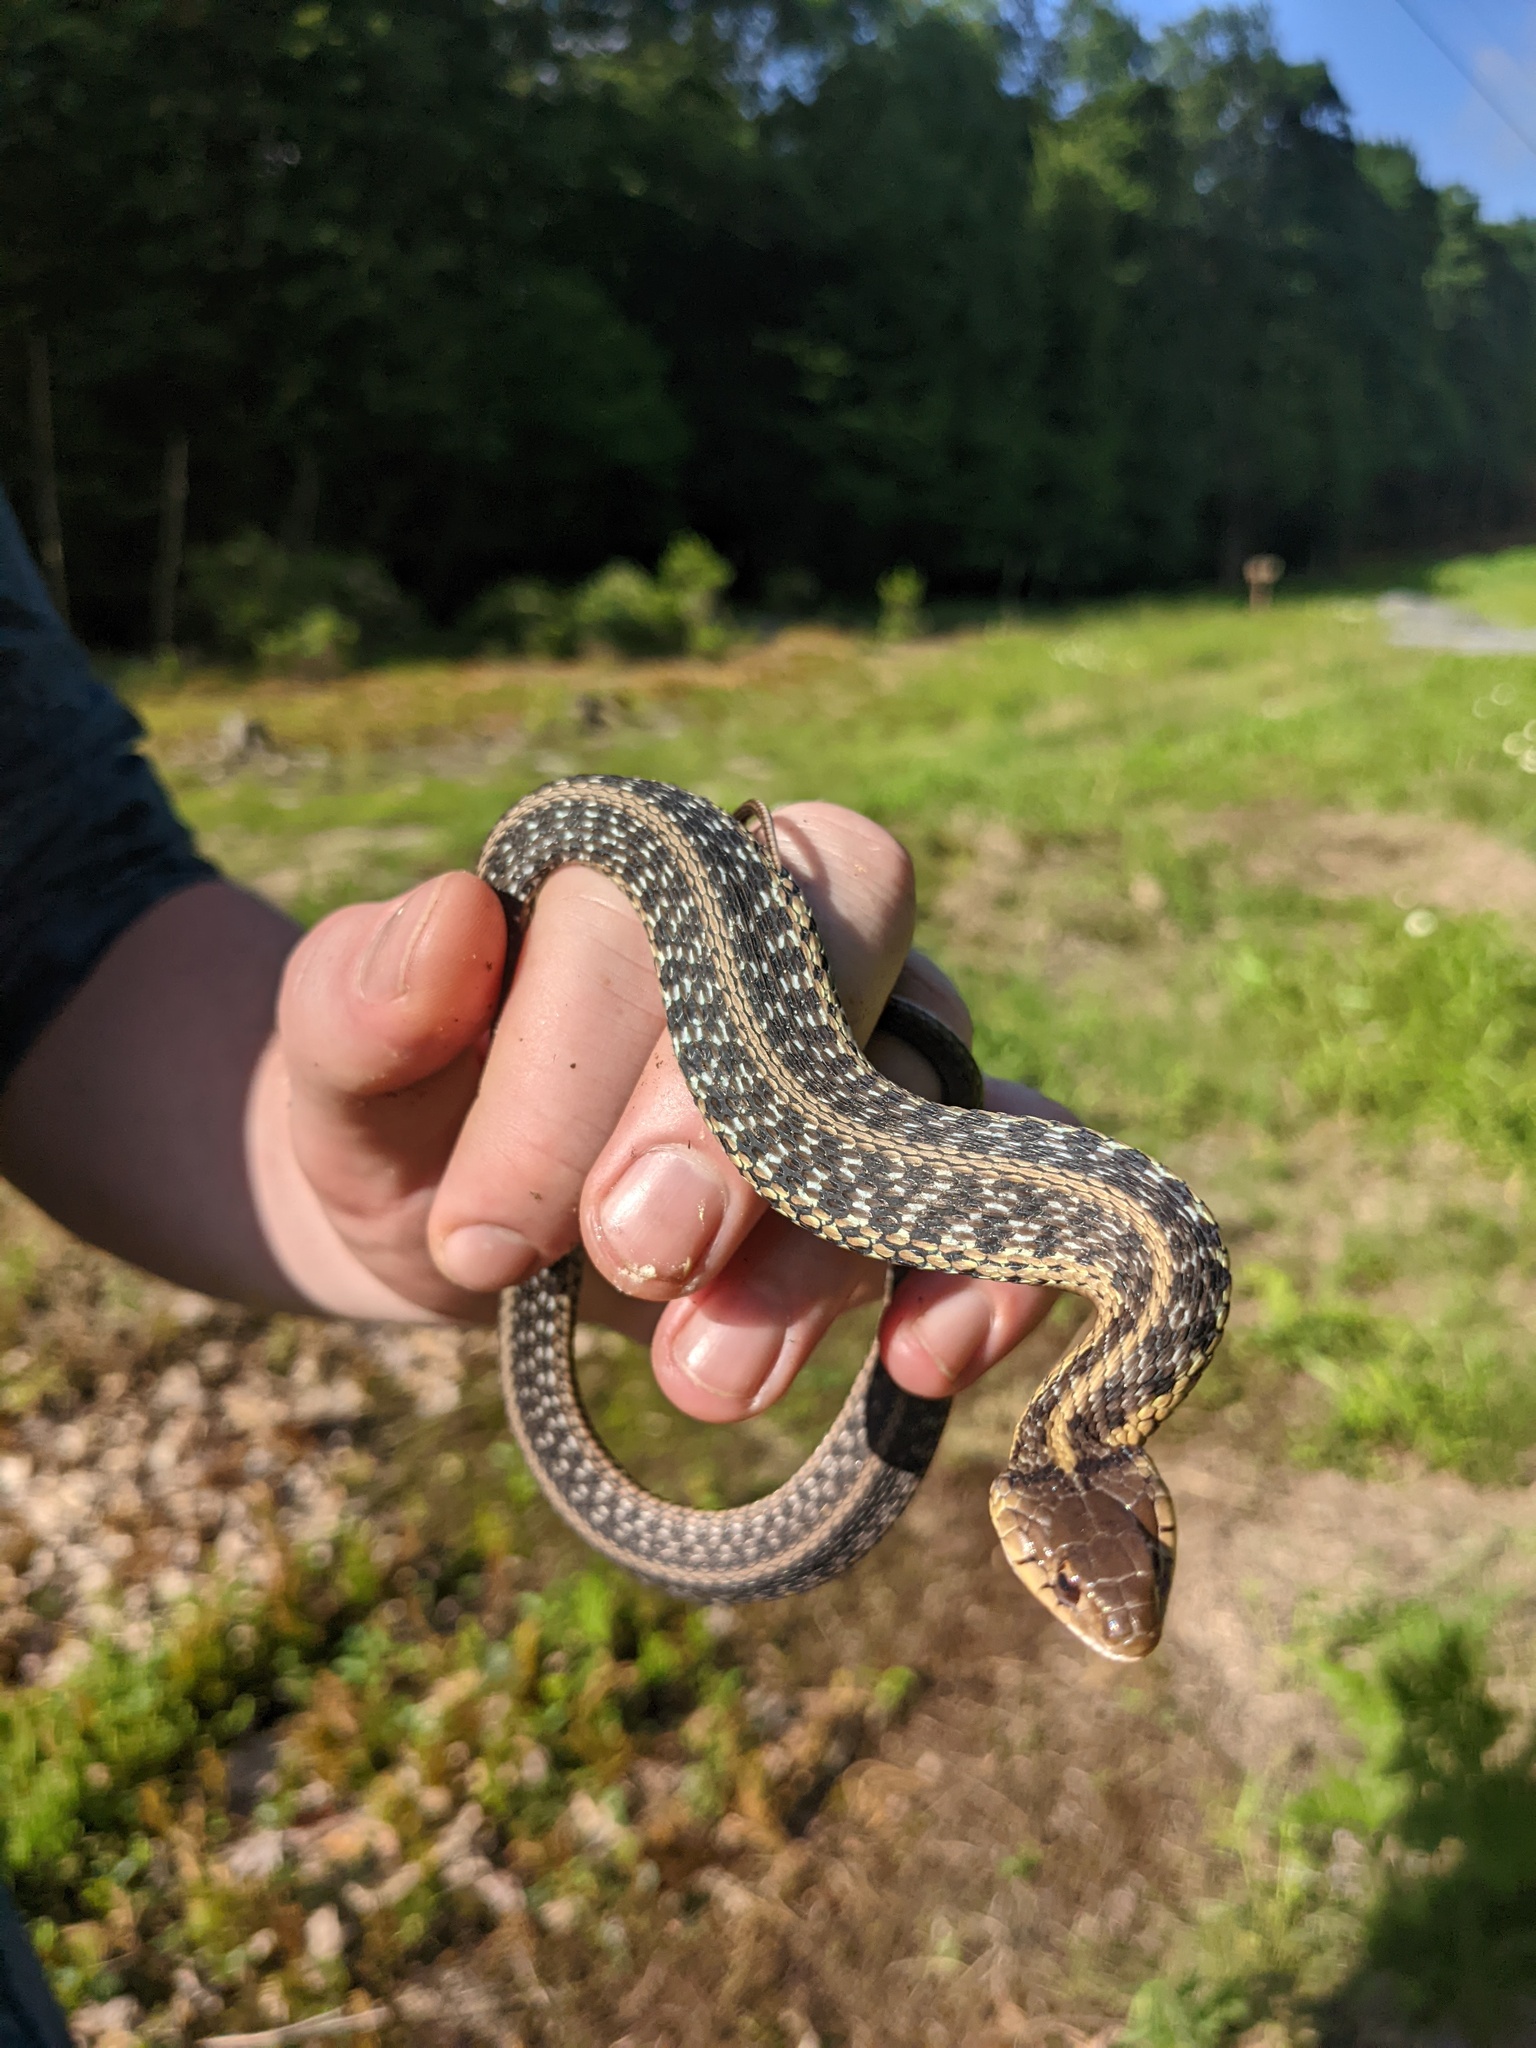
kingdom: Animalia
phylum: Chordata
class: Squamata
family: Colubridae
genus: Thamnophis
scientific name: Thamnophis sirtalis
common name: Common garter snake
